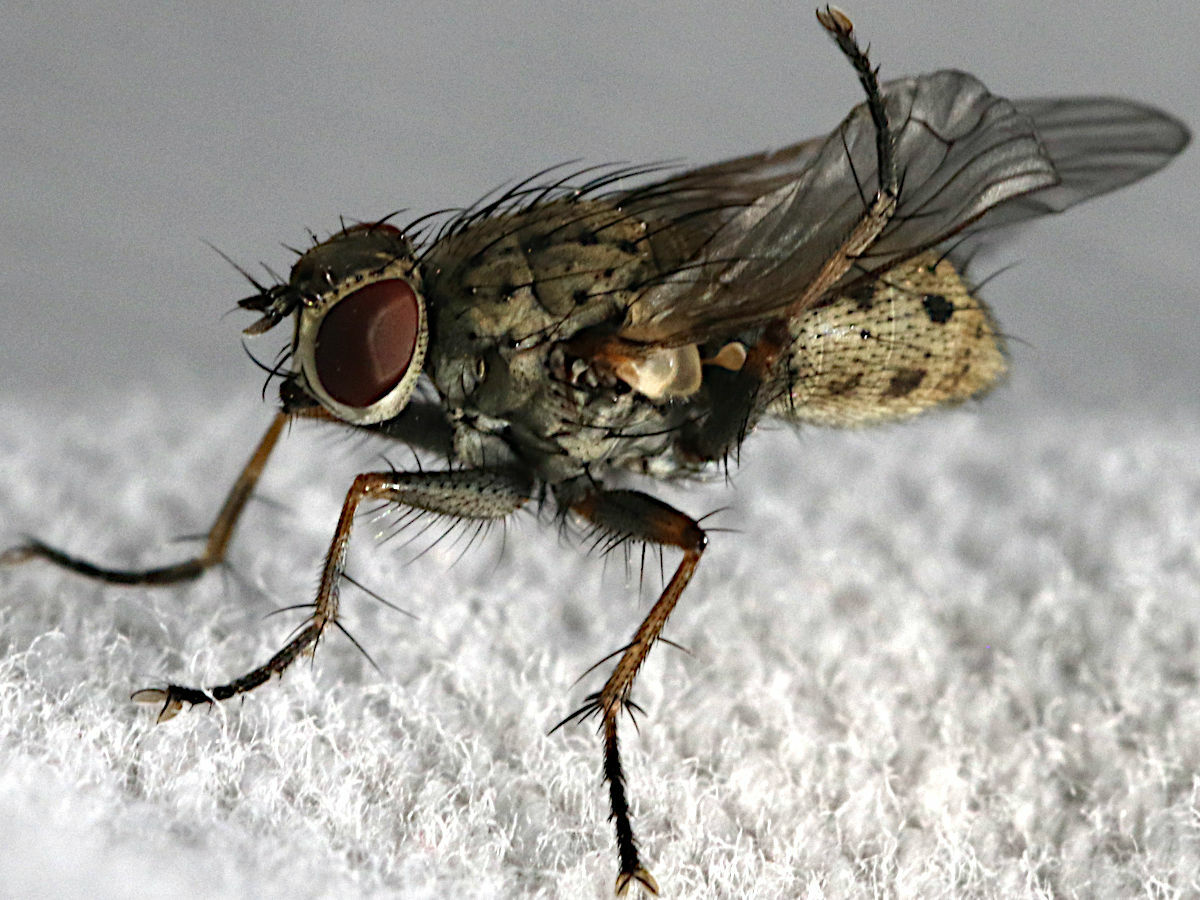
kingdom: Animalia
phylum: Arthropoda
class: Insecta
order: Diptera
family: Muscidae
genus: Coenosia
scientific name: Coenosia tigrina
